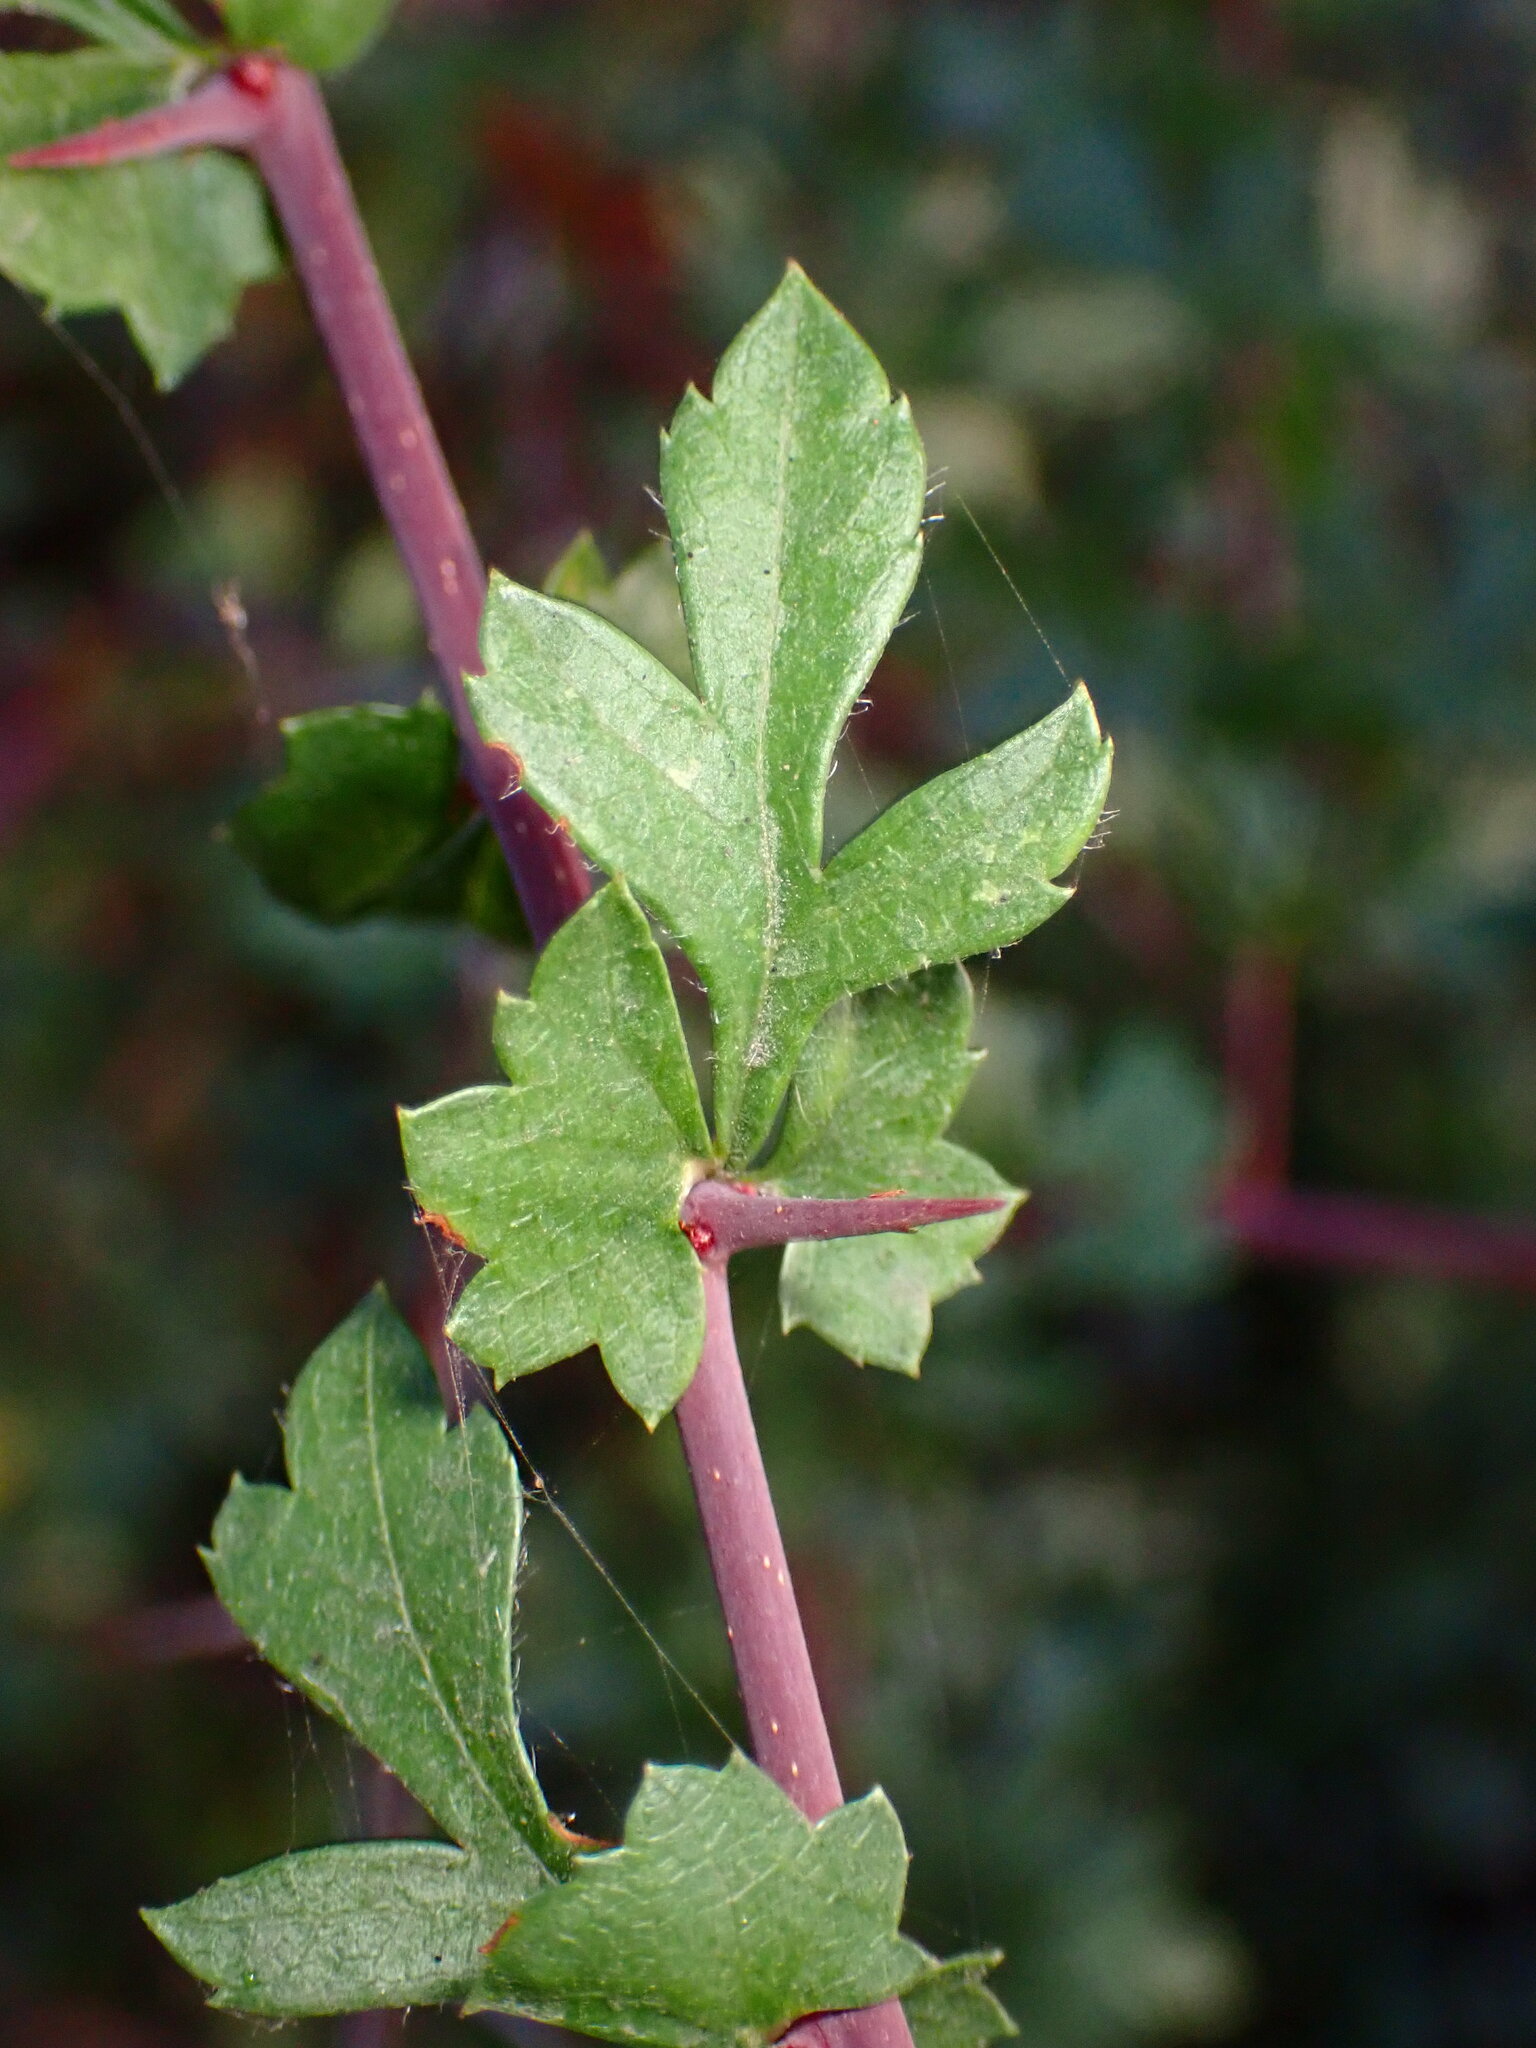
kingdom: Plantae
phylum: Tracheophyta
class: Magnoliopsida
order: Rosales
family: Rosaceae
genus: Crataegus
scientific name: Crataegus monogyna
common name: Hawthorn
